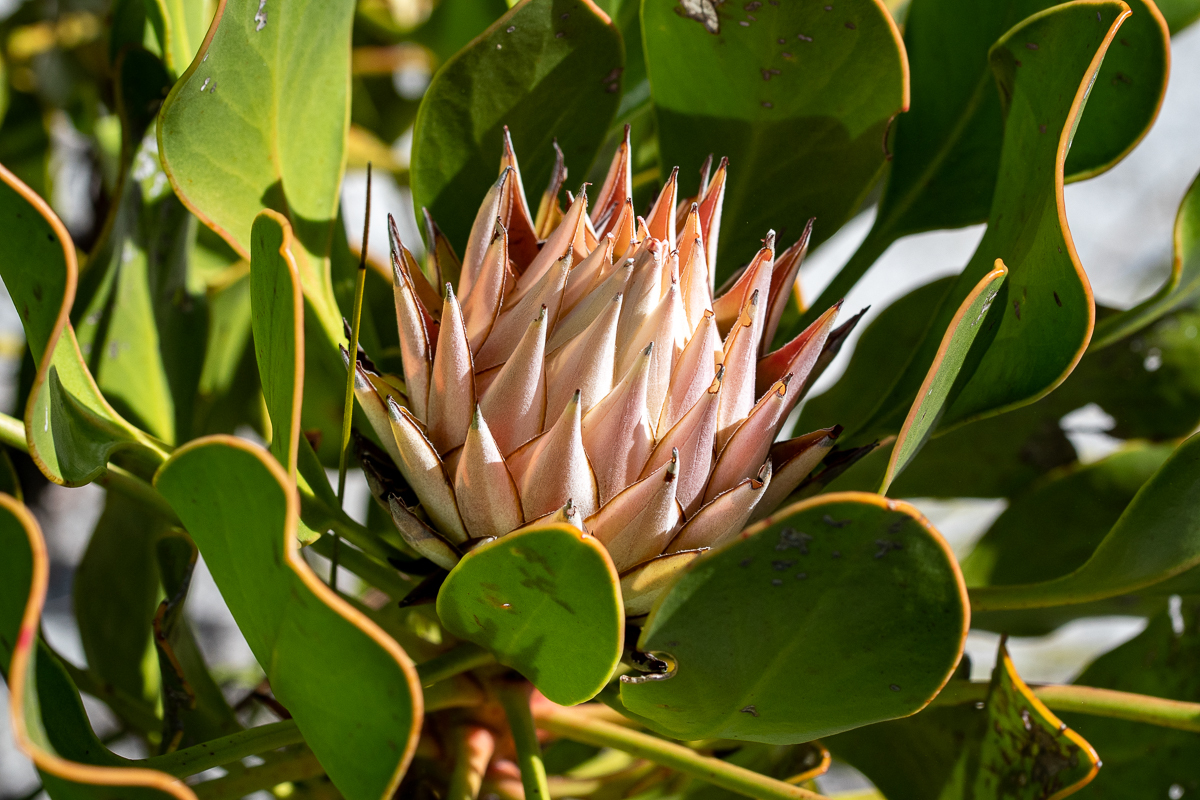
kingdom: Plantae
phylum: Tracheophyta
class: Magnoliopsida
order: Proteales
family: Proteaceae
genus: Protea
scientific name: Protea cynaroides
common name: King protea
